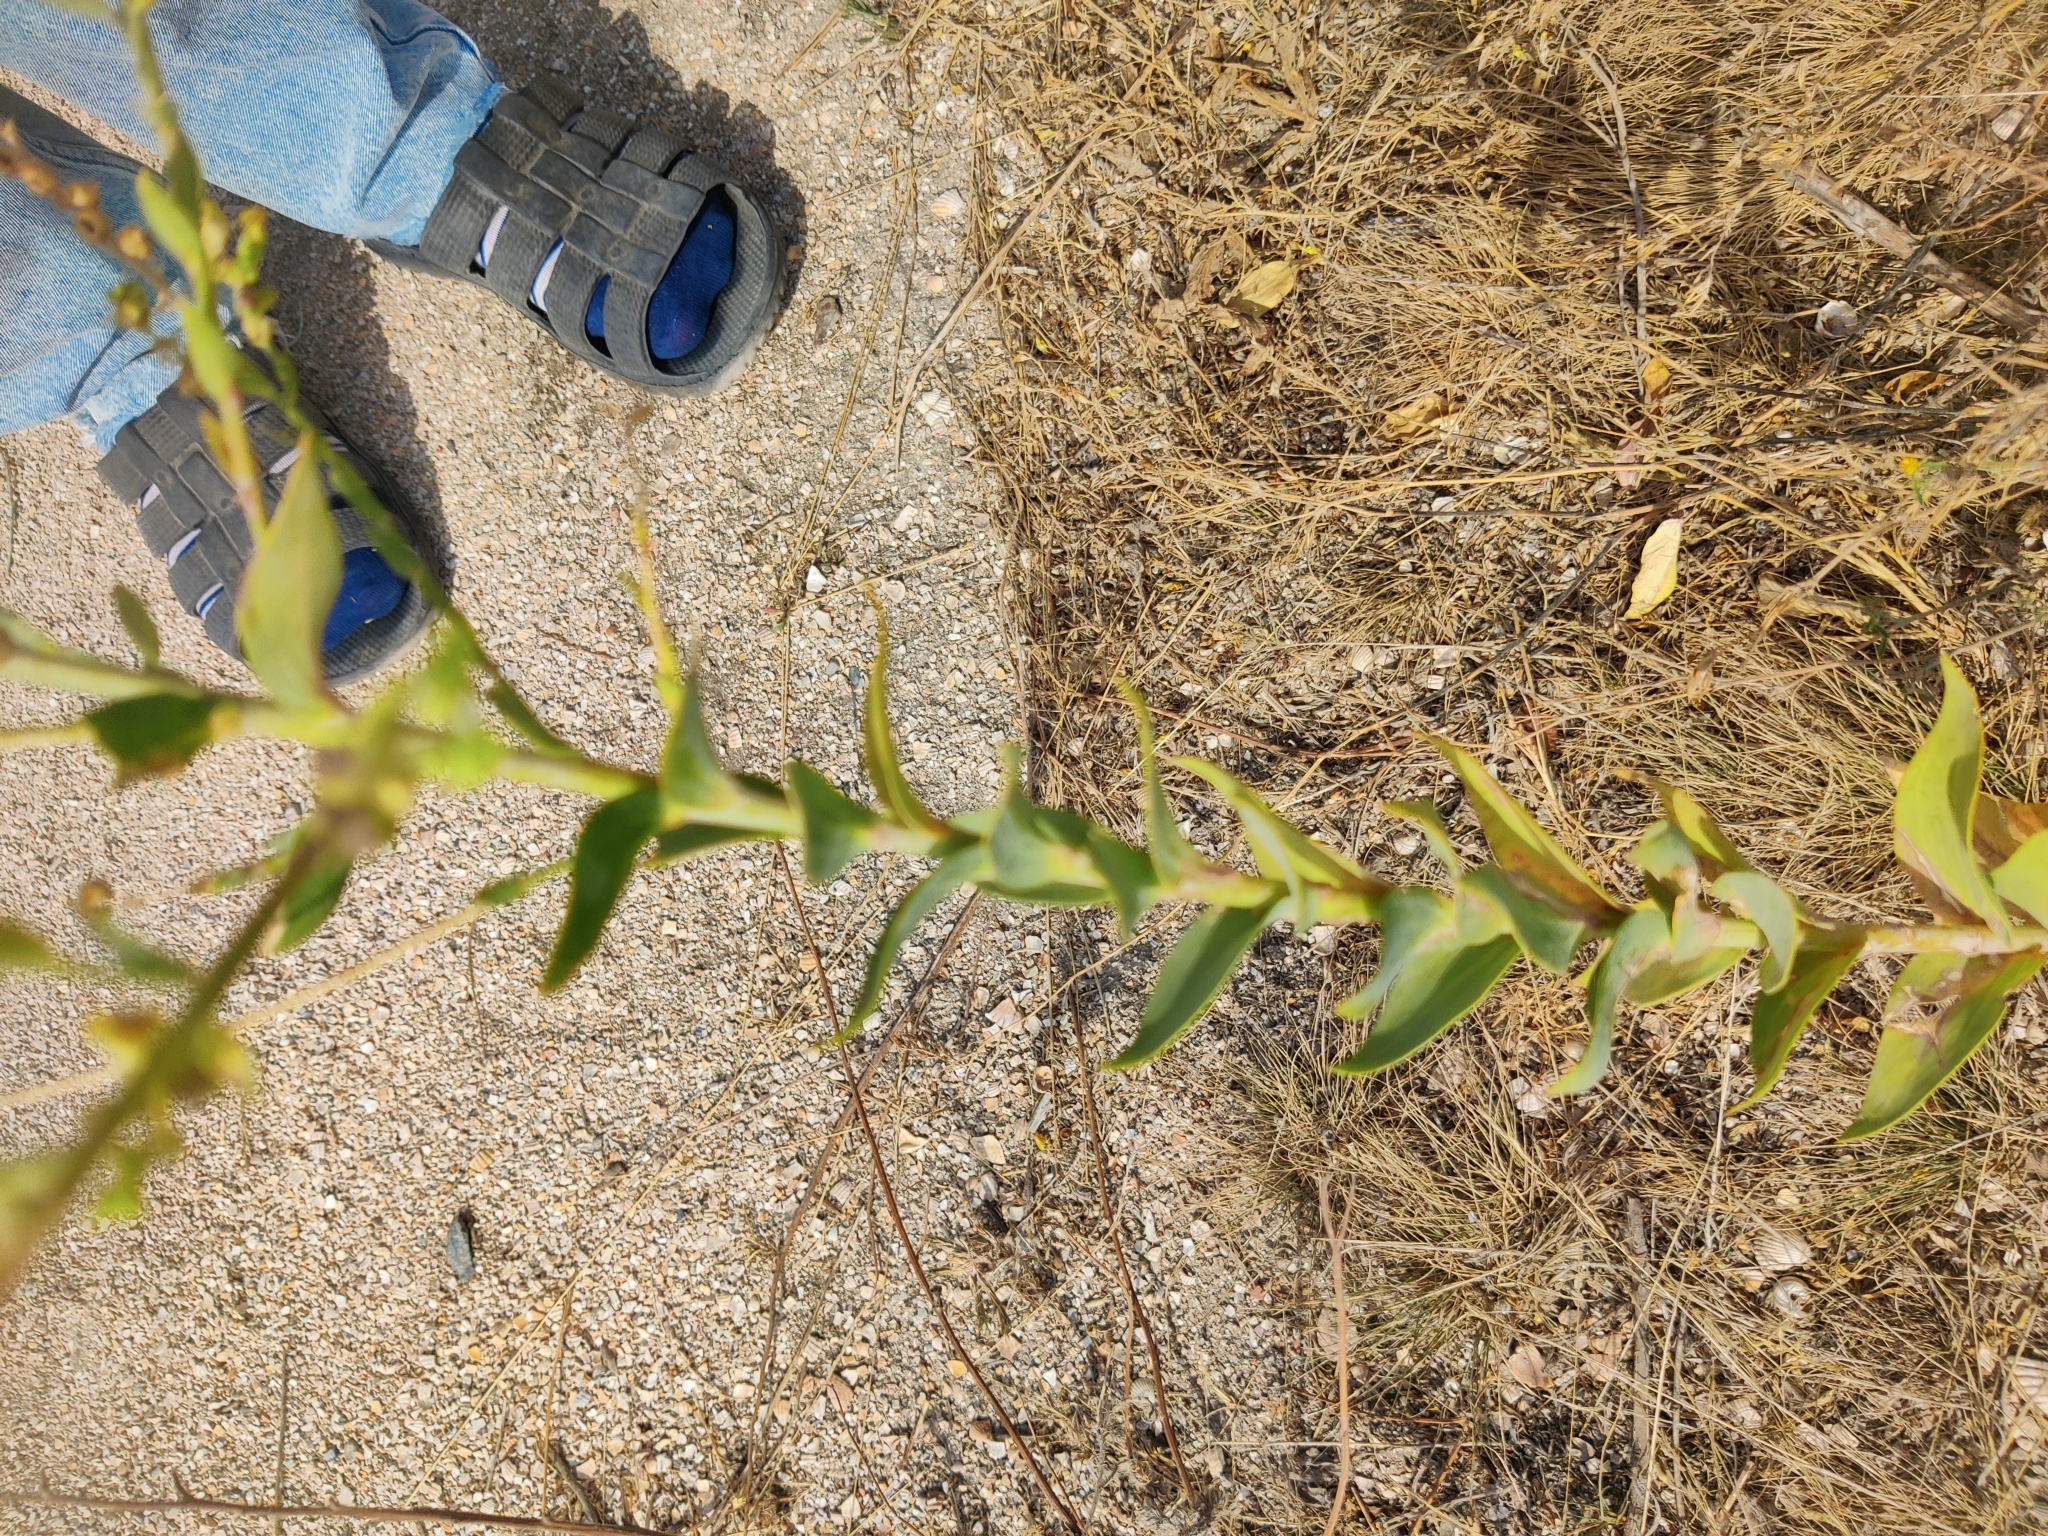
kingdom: Plantae
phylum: Tracheophyta
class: Magnoliopsida
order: Lamiales
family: Plantaginaceae
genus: Linaria
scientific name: Linaria genistifolia
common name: Broomleaf toadflax
